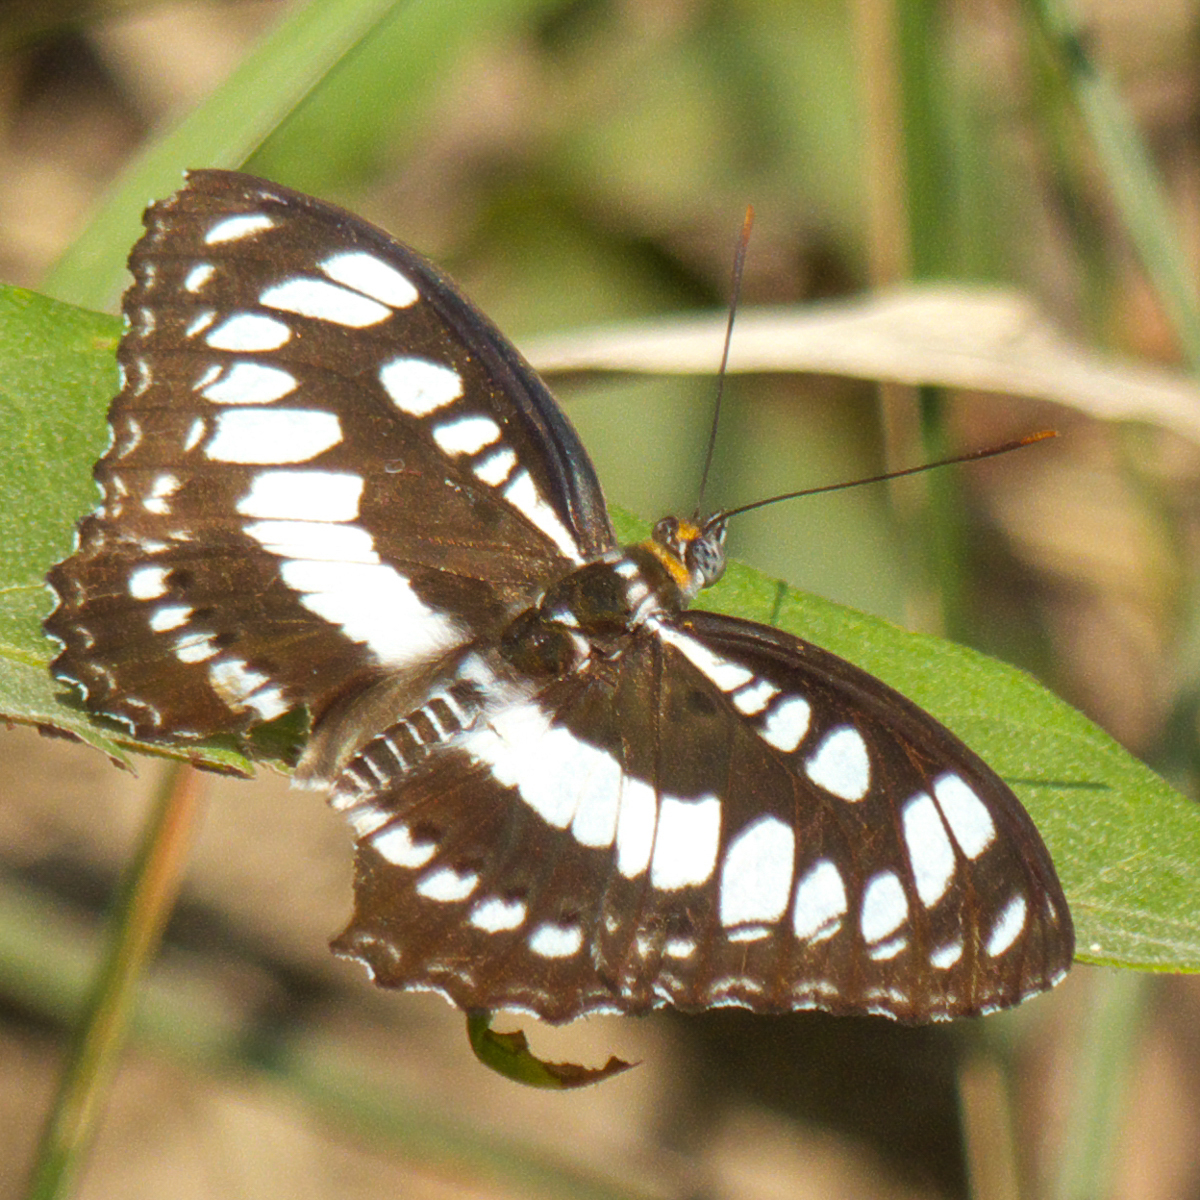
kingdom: Animalia
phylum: Arthropoda
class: Insecta
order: Lepidoptera
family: Nymphalidae
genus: Parathyma
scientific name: Parathyma perius
